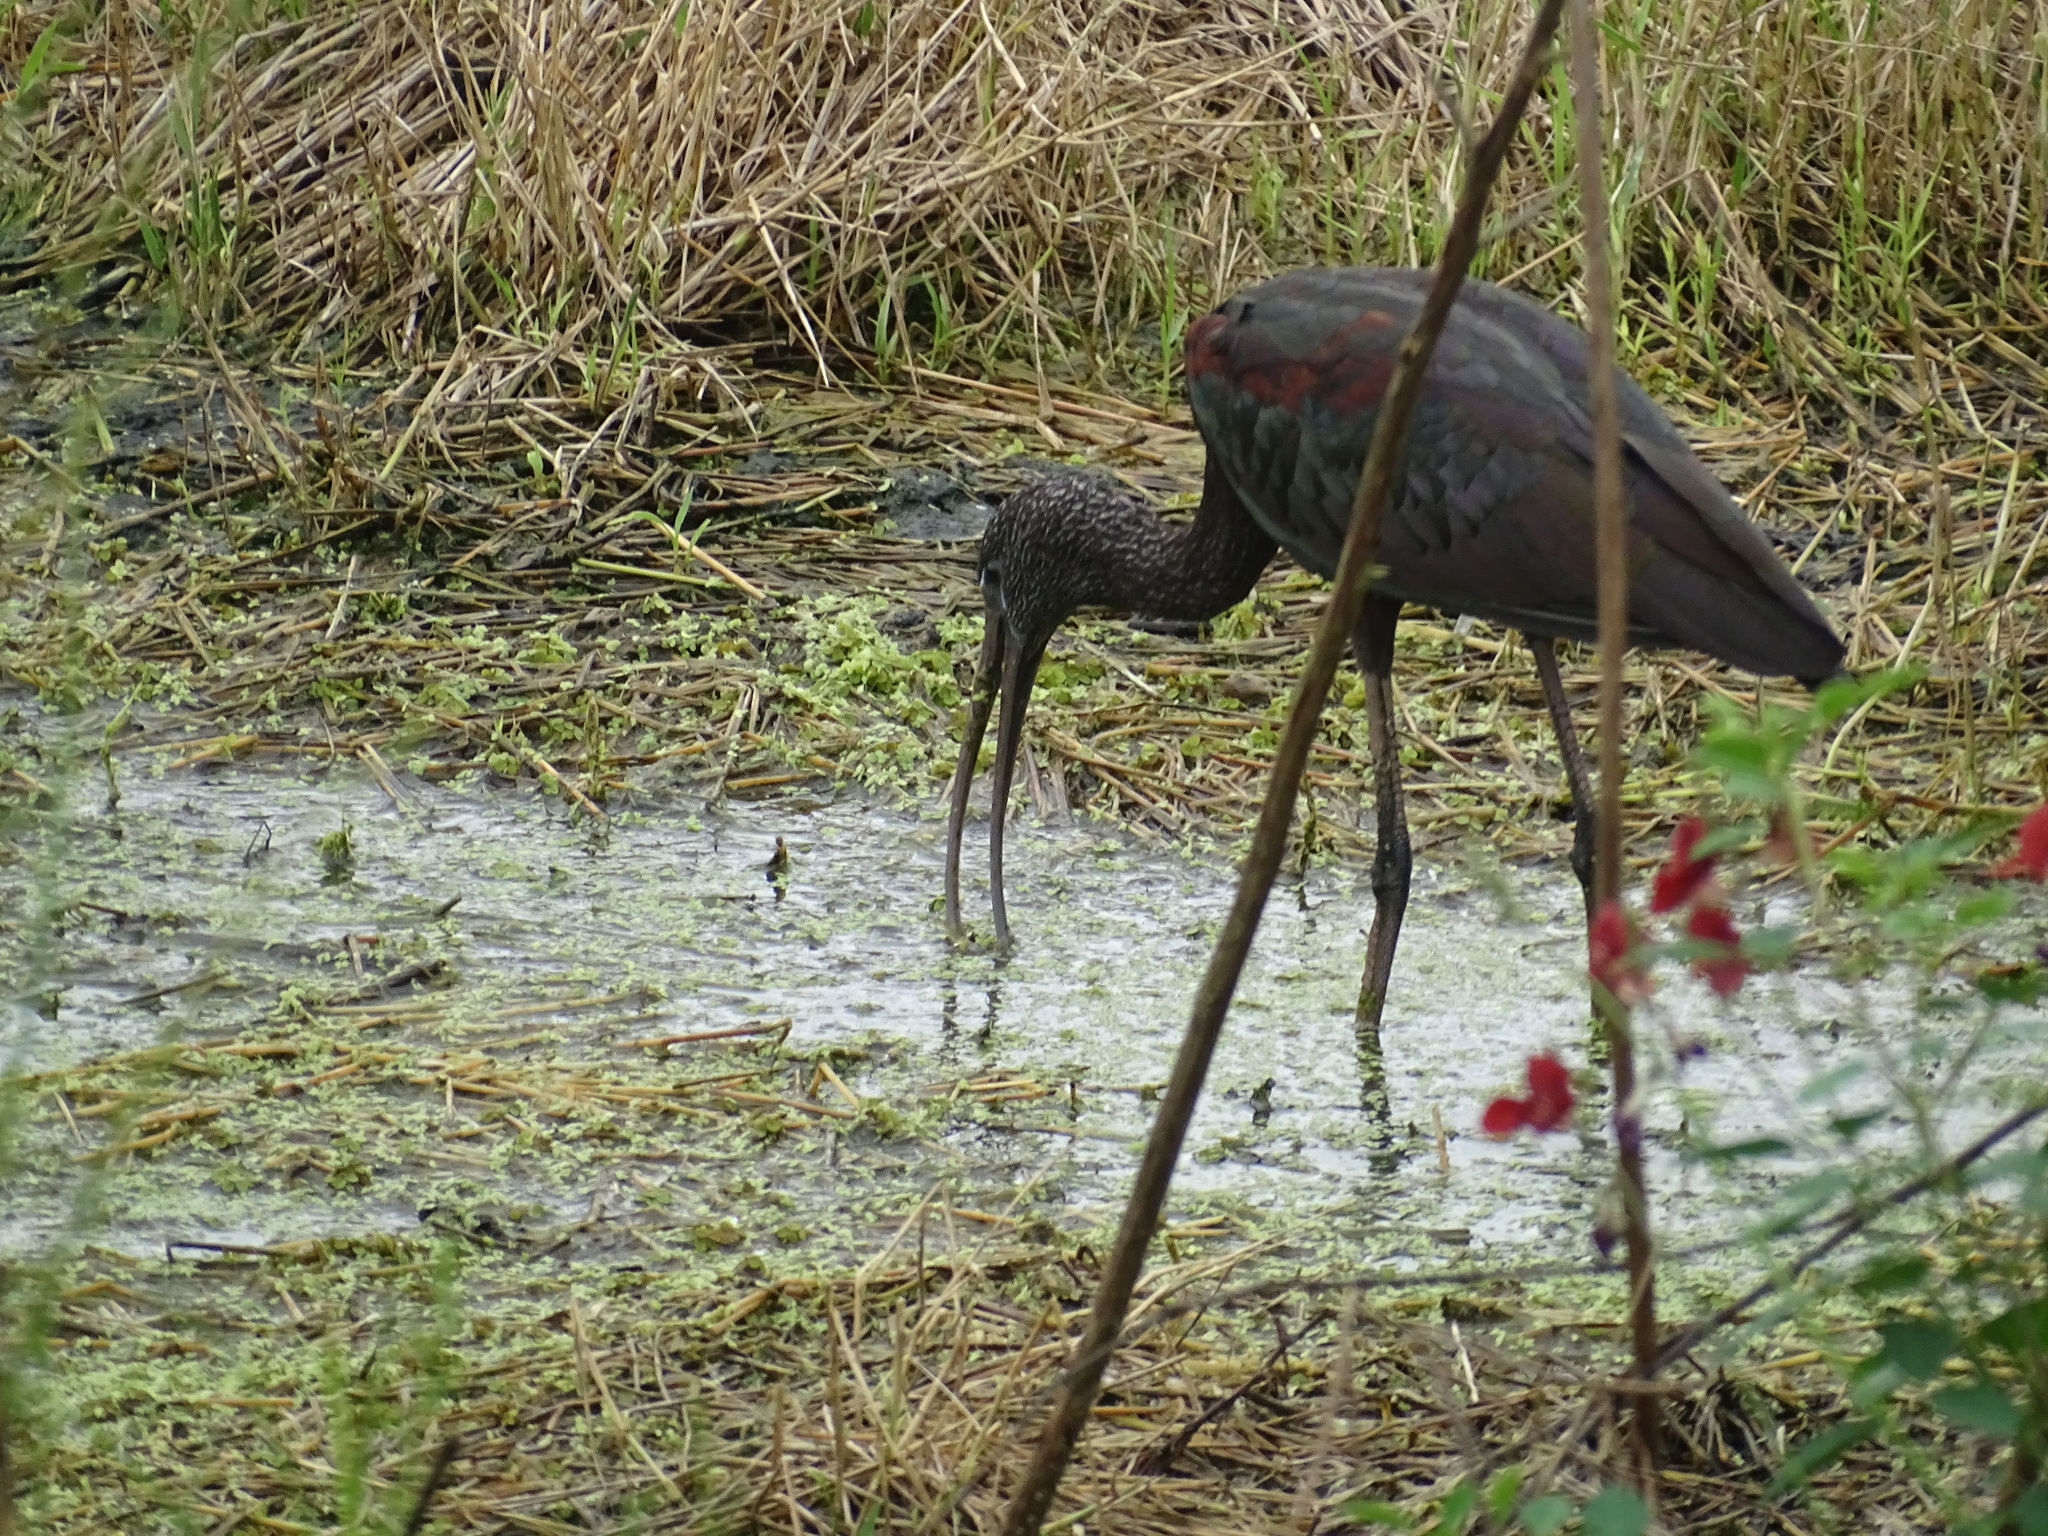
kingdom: Animalia
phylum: Chordata
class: Aves
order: Pelecaniformes
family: Threskiornithidae
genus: Plegadis
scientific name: Plegadis falcinellus
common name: Glossy ibis
